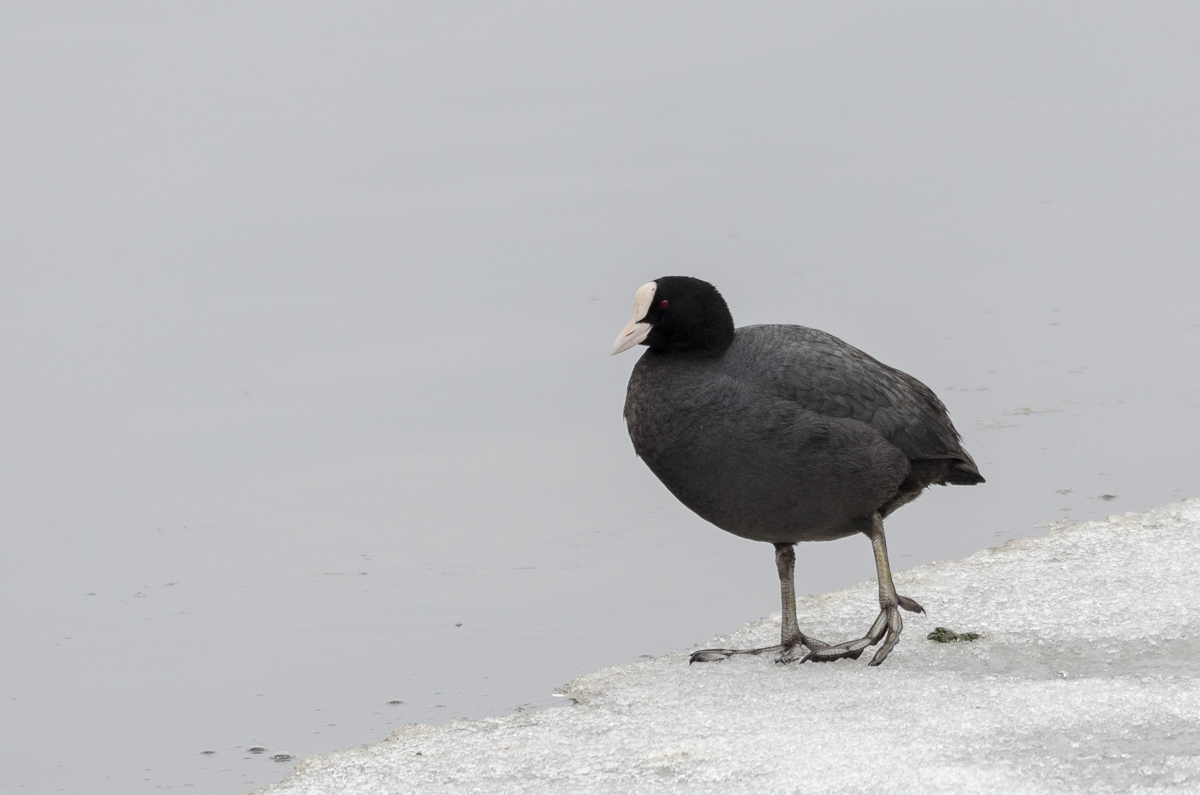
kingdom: Animalia
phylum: Chordata
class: Aves
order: Gruiformes
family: Rallidae
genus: Fulica
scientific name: Fulica atra
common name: Eurasian coot
